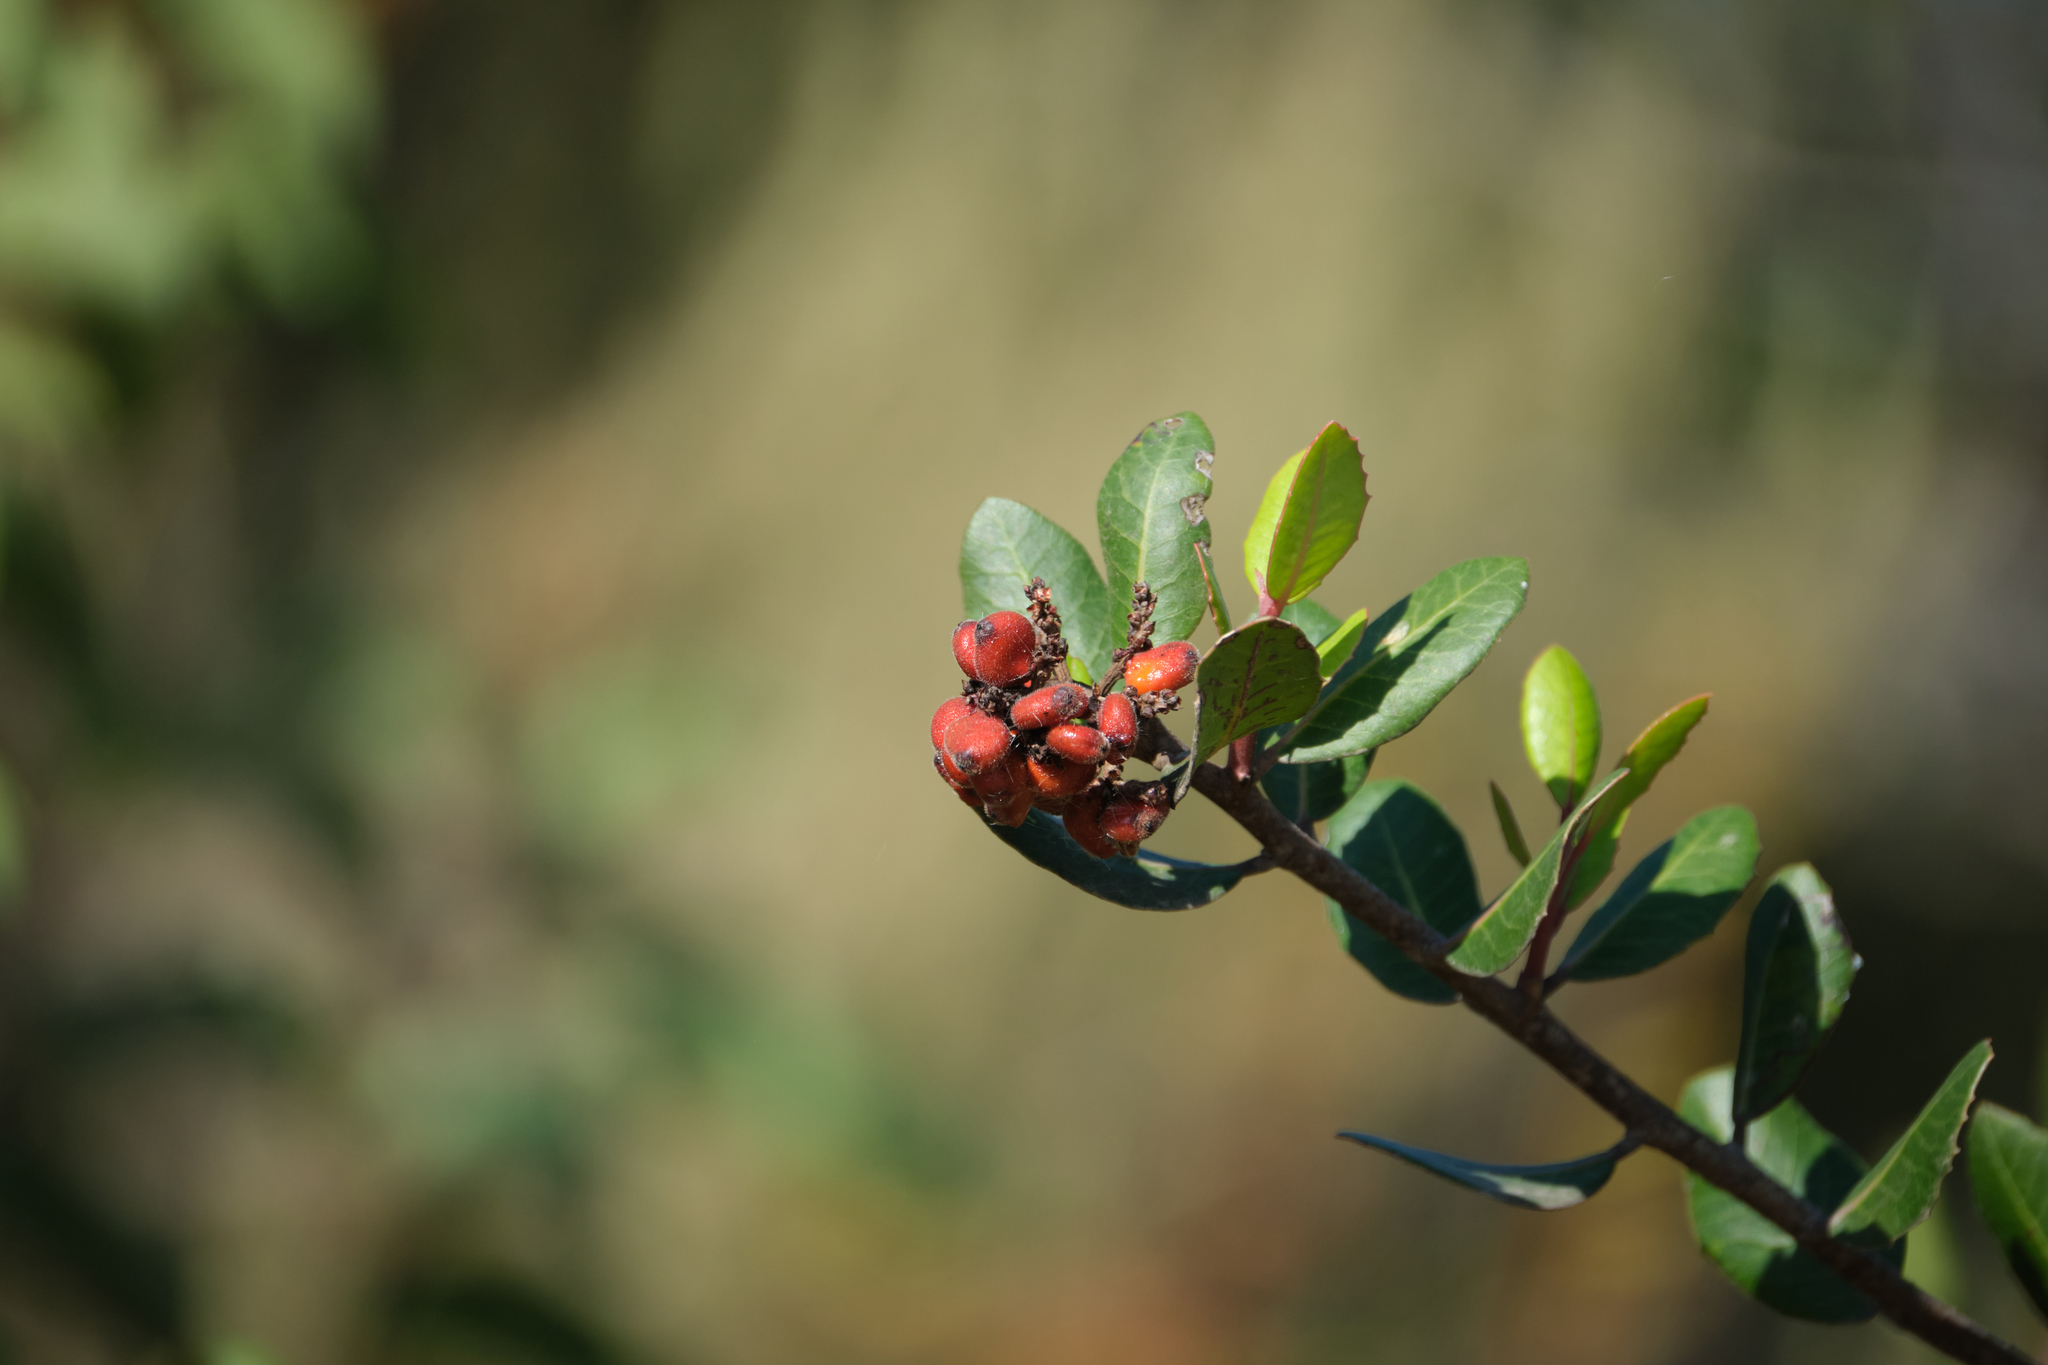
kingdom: Plantae
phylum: Tracheophyta
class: Magnoliopsida
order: Sapindales
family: Anacardiaceae
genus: Rhus
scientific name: Rhus integrifolia
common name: Lemonade sumac
